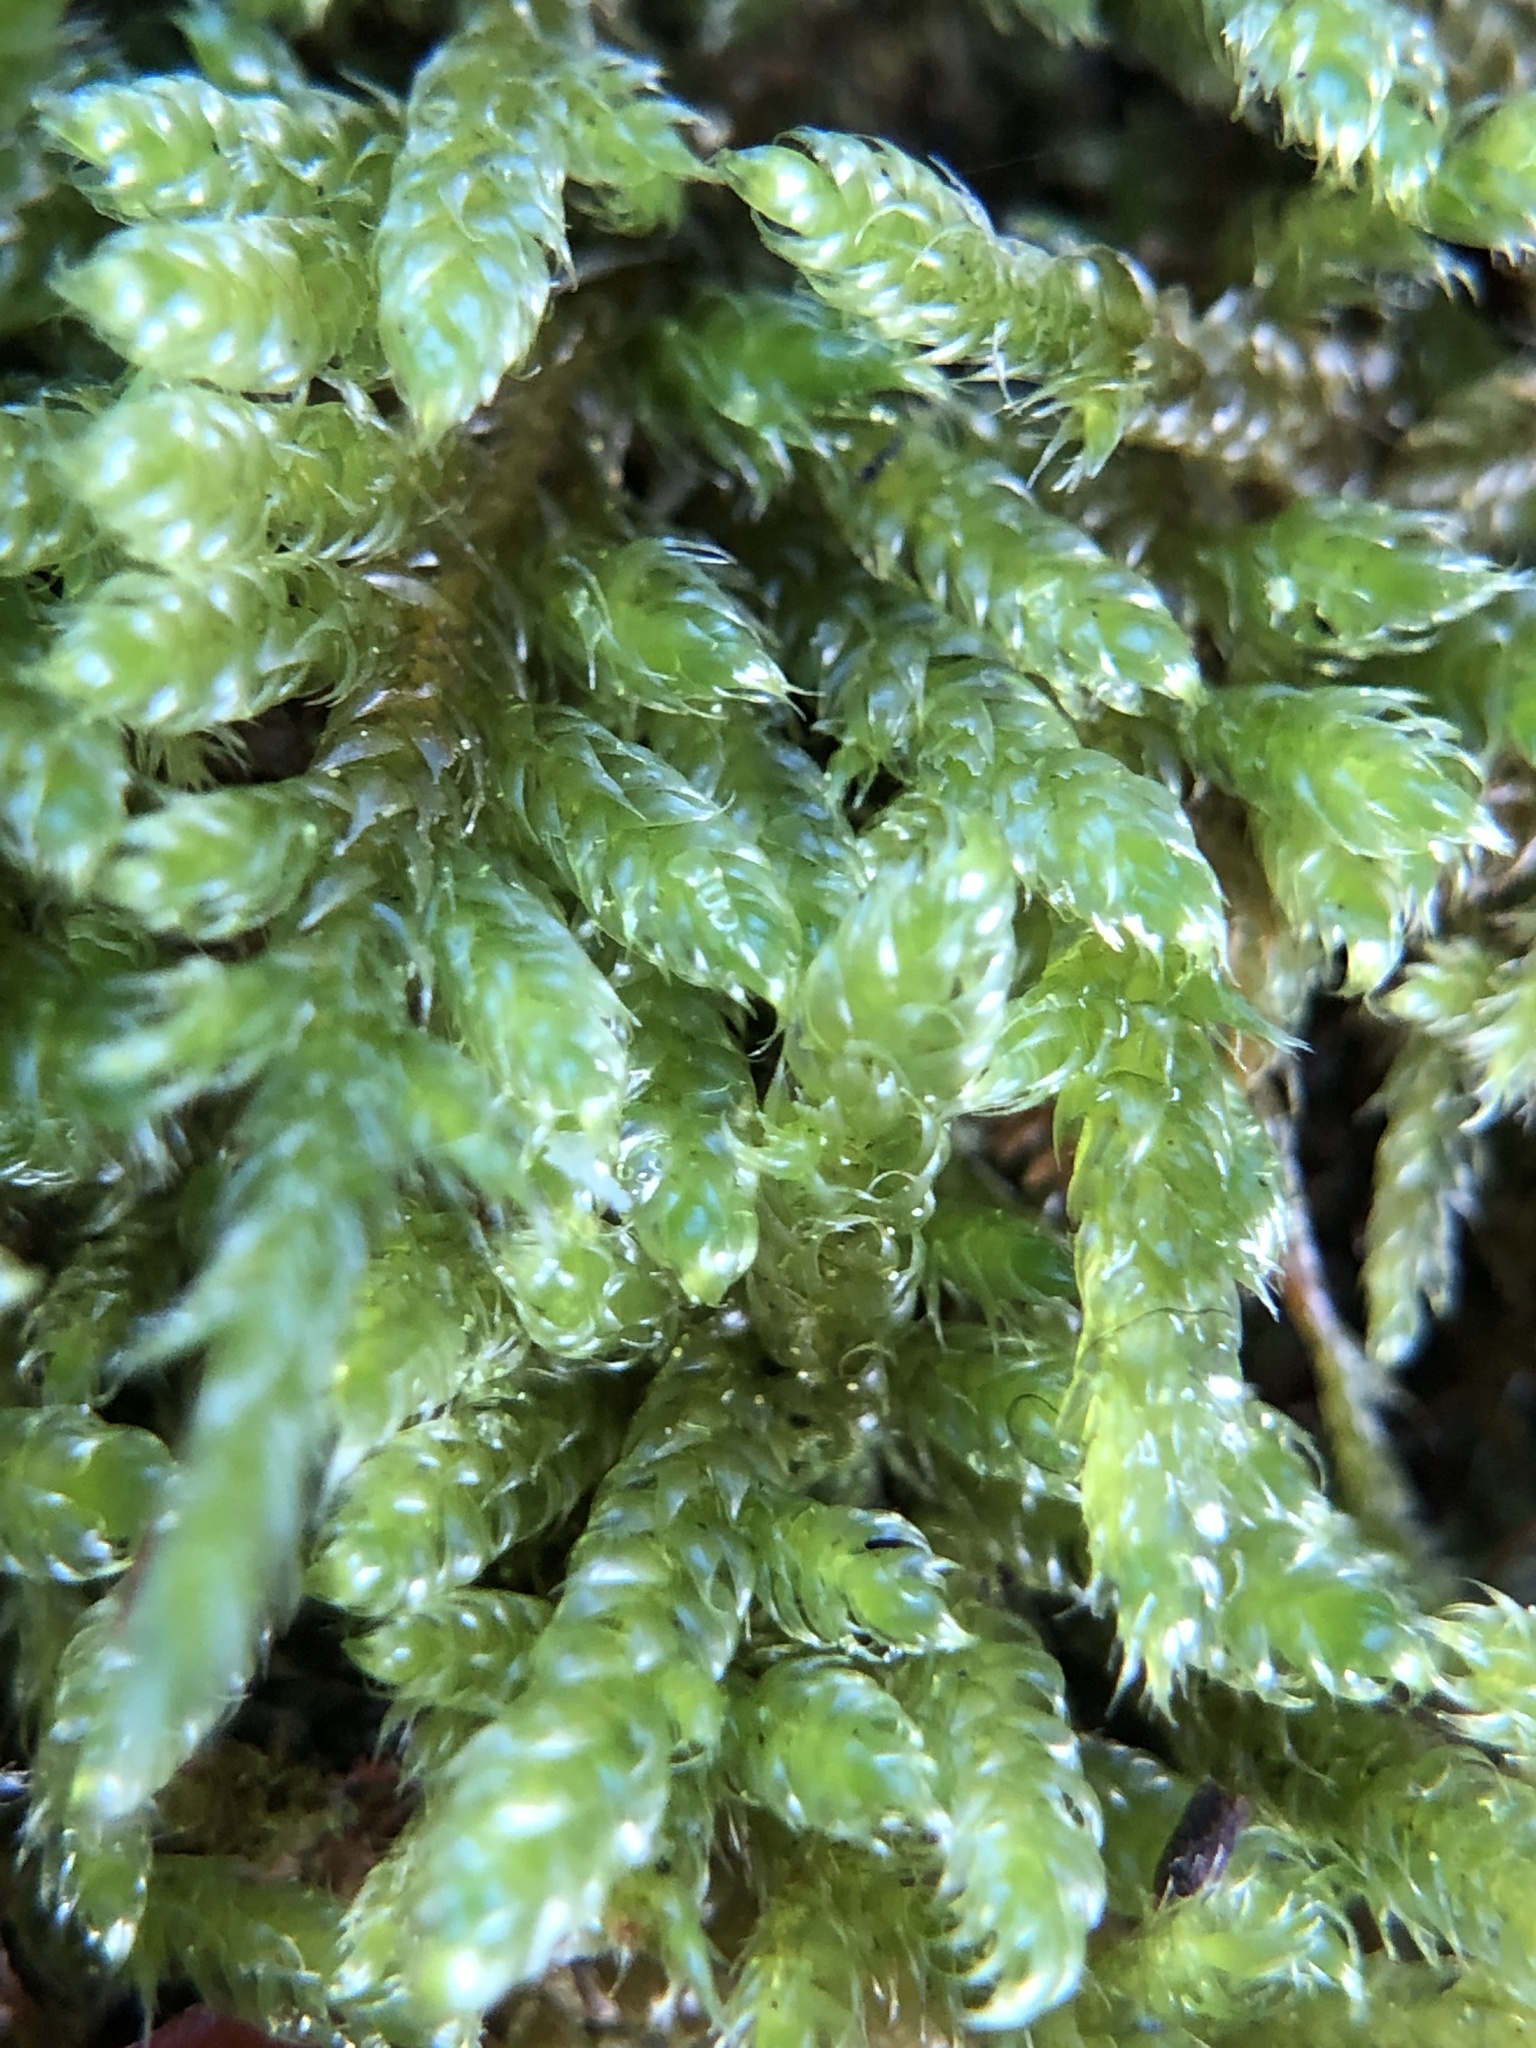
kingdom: Plantae
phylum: Bryophyta
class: Bryopsida
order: Hypnales
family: Hypnaceae
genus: Hypnum
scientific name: Hypnum cupressiforme
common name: Cypress-leaved plait-moss
